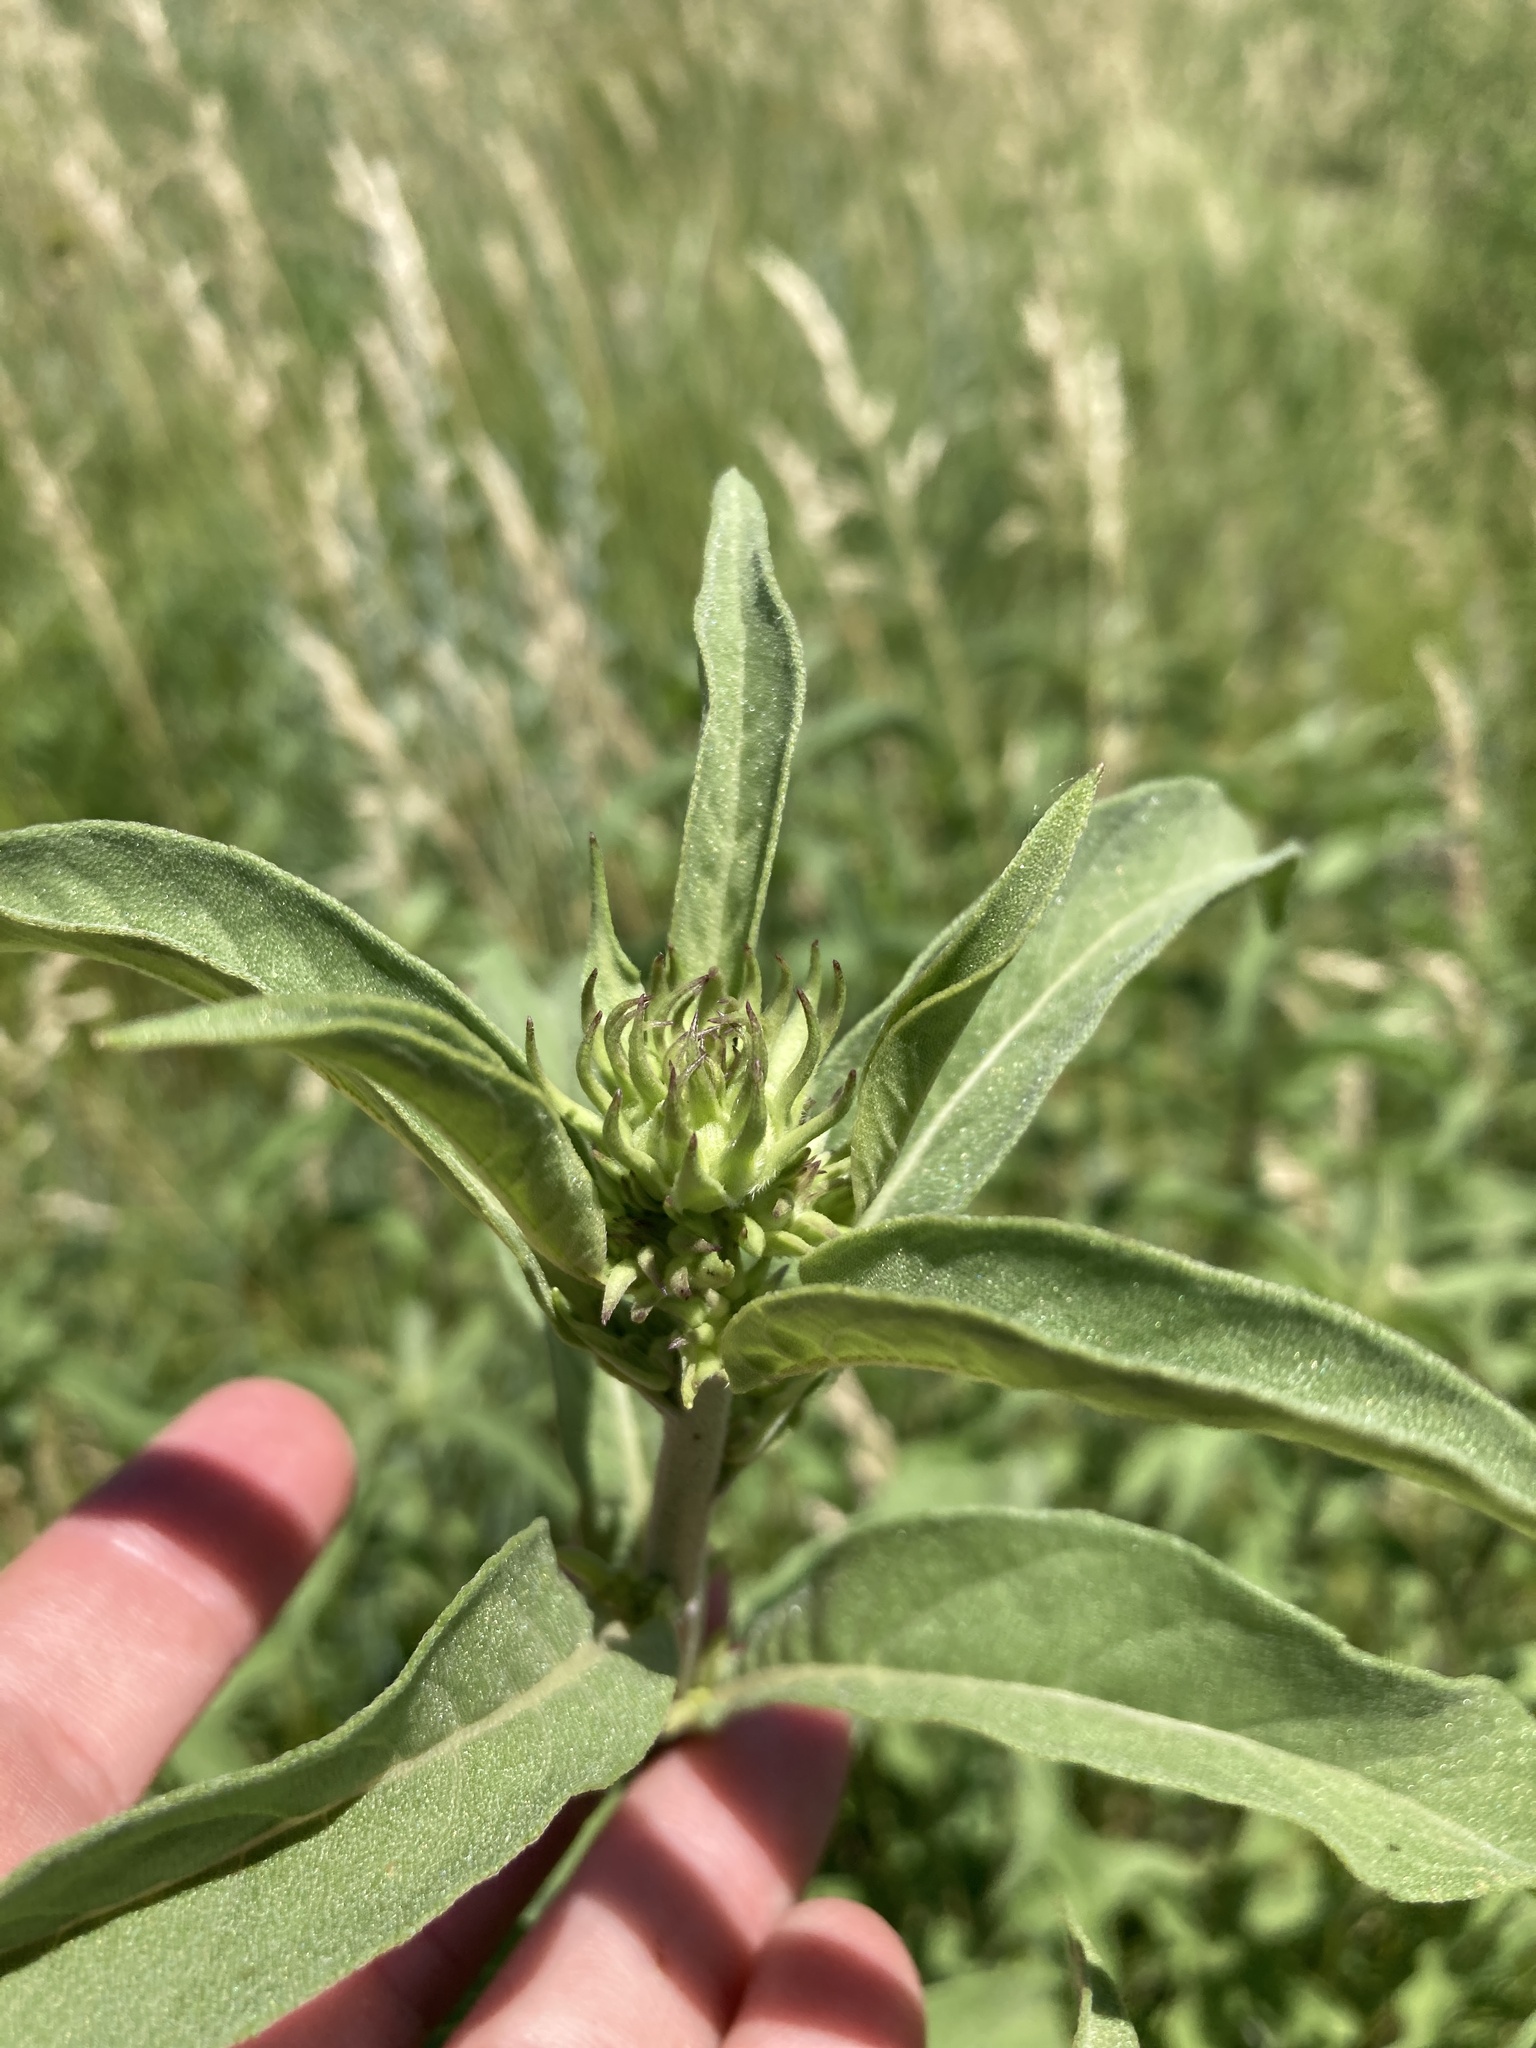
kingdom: Plantae
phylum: Tracheophyta
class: Magnoliopsida
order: Asterales
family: Asteraceae
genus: Helianthus
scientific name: Helianthus maximiliani
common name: Maximilian's sunflower
